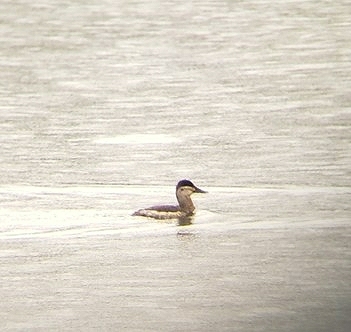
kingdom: Animalia
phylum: Chordata
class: Aves
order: Anseriformes
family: Anatidae
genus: Oxyura
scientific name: Oxyura jamaicensis
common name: Ruddy duck
